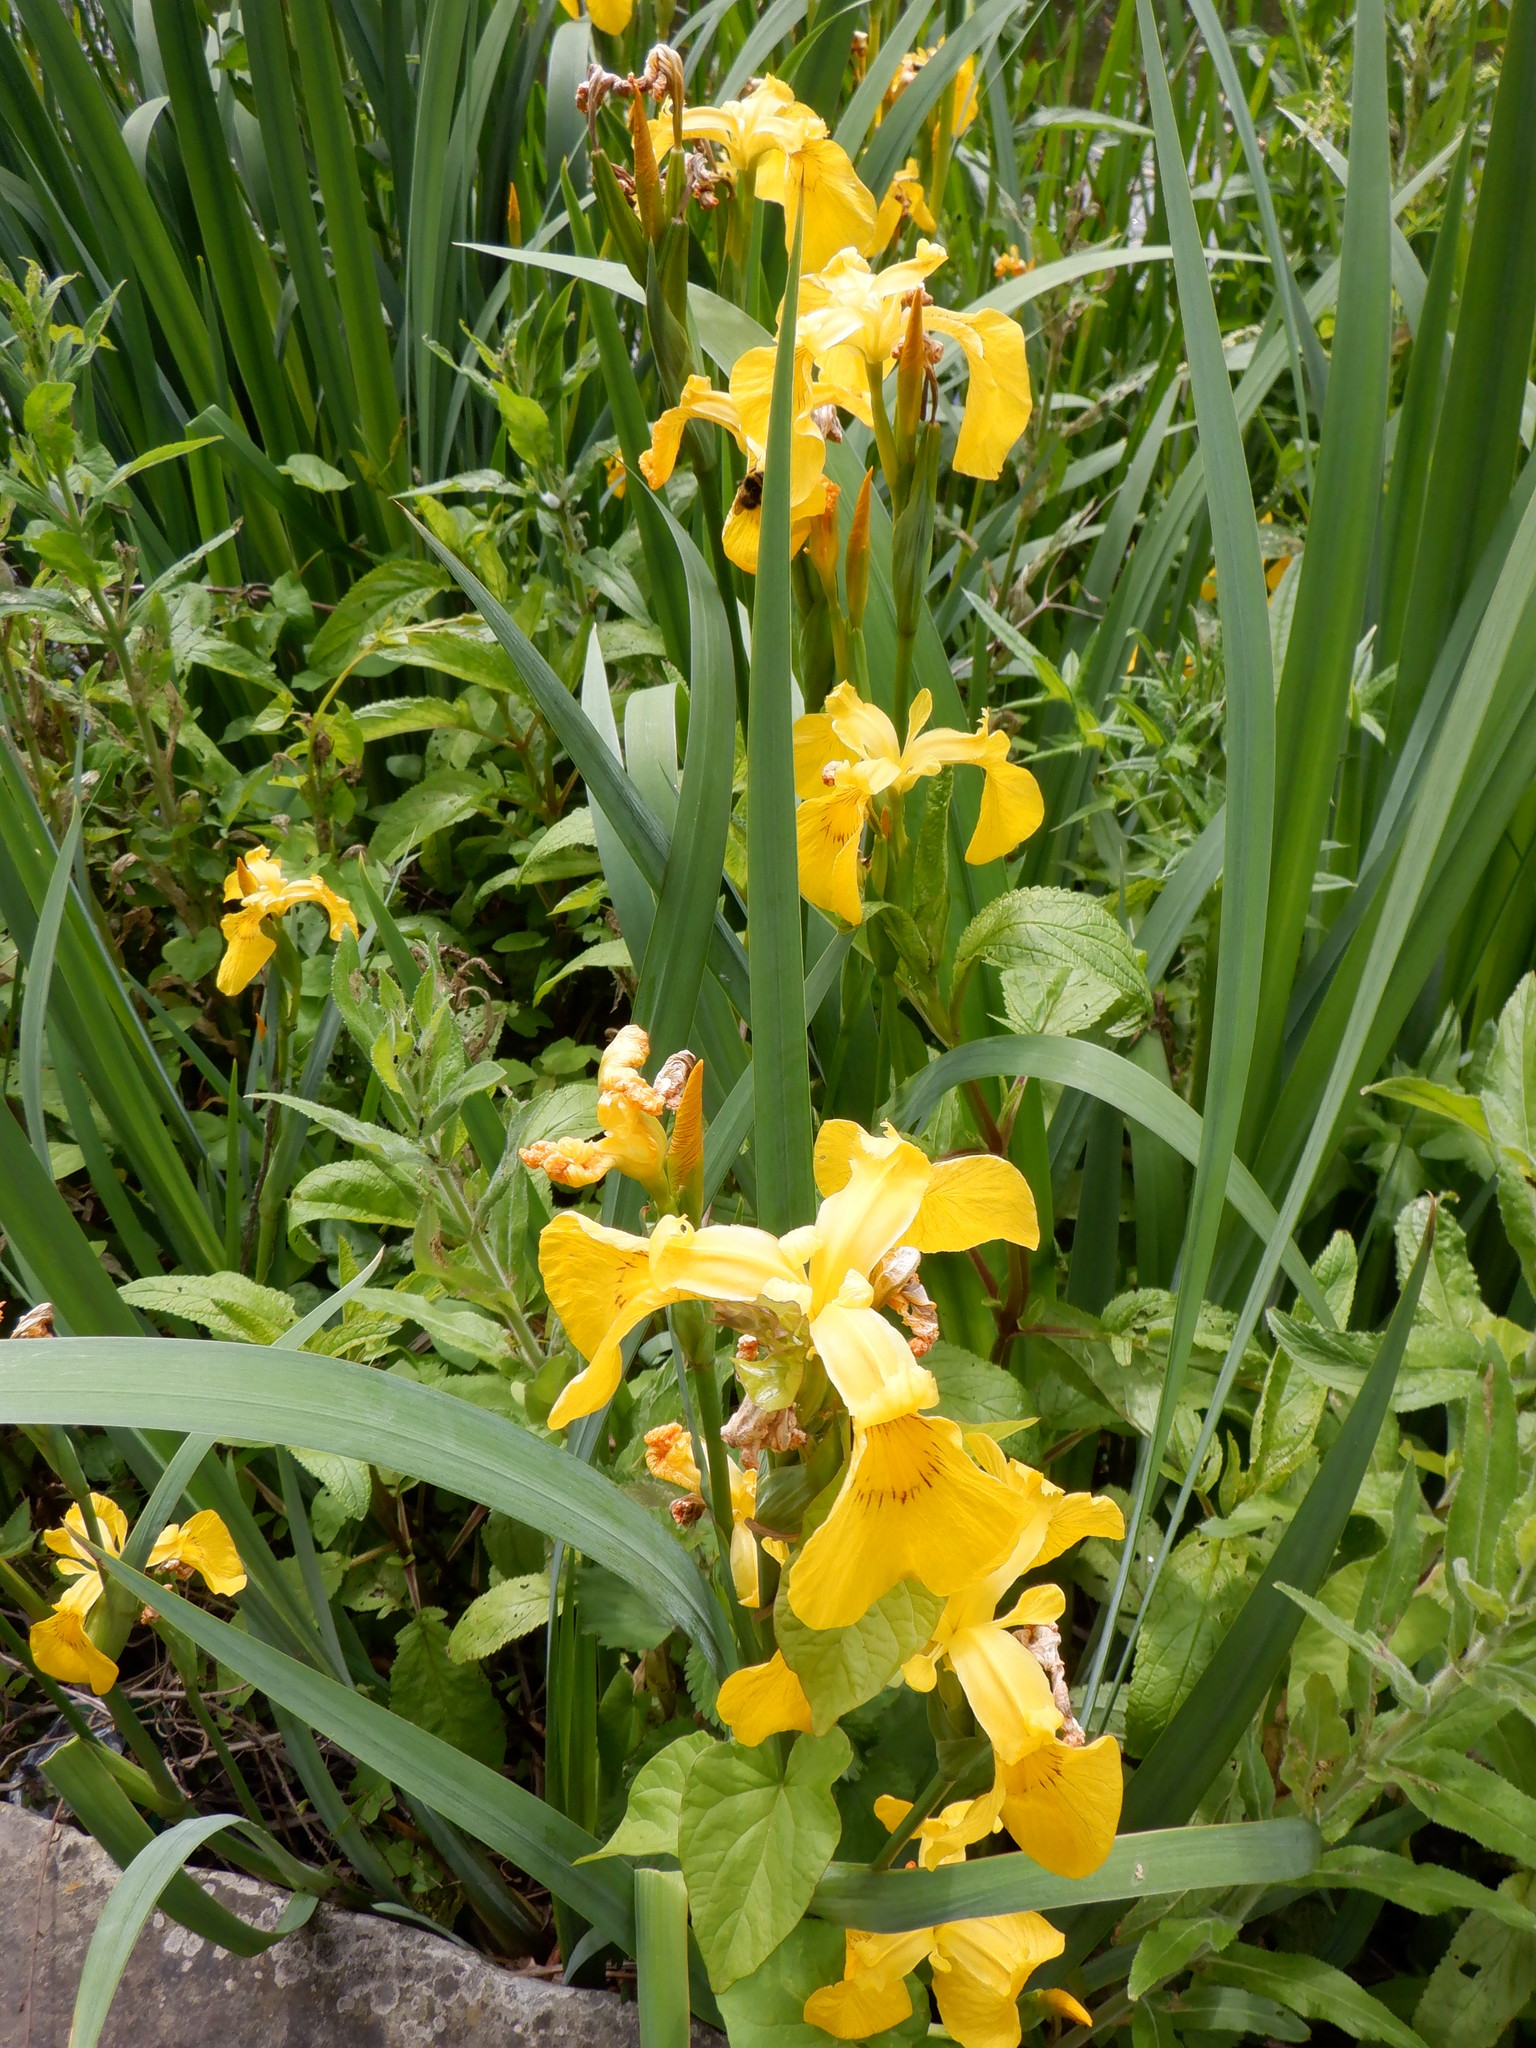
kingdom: Plantae
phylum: Tracheophyta
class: Liliopsida
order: Asparagales
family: Iridaceae
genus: Iris
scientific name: Iris pseudacorus
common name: Yellow flag
